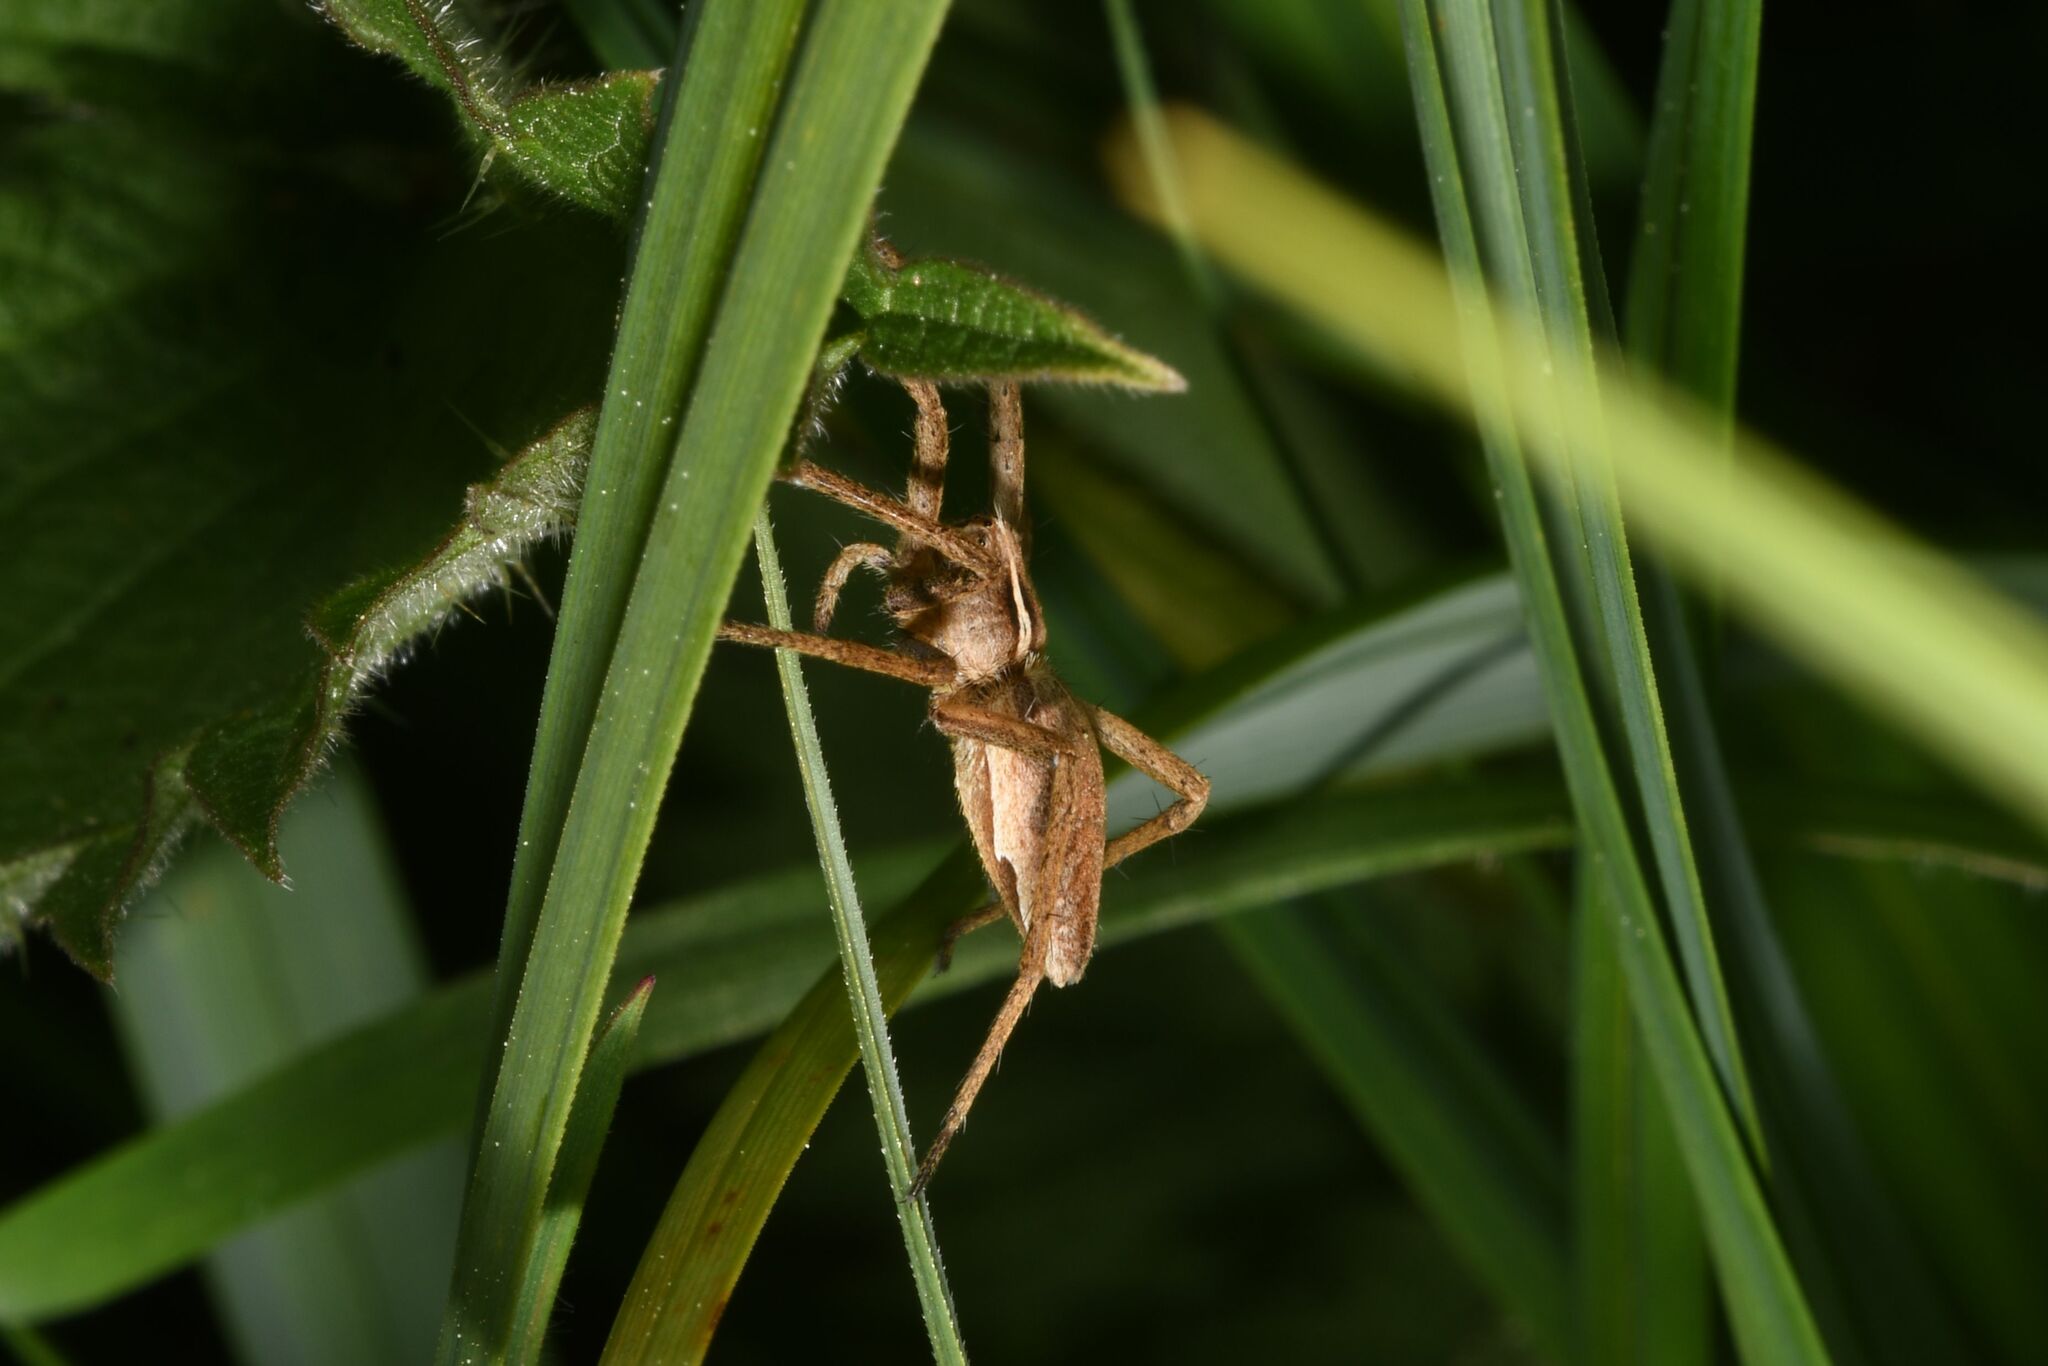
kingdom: Animalia
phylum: Arthropoda
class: Arachnida
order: Araneae
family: Pisauridae
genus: Pisaura
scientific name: Pisaura mirabilis
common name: Tent spider
